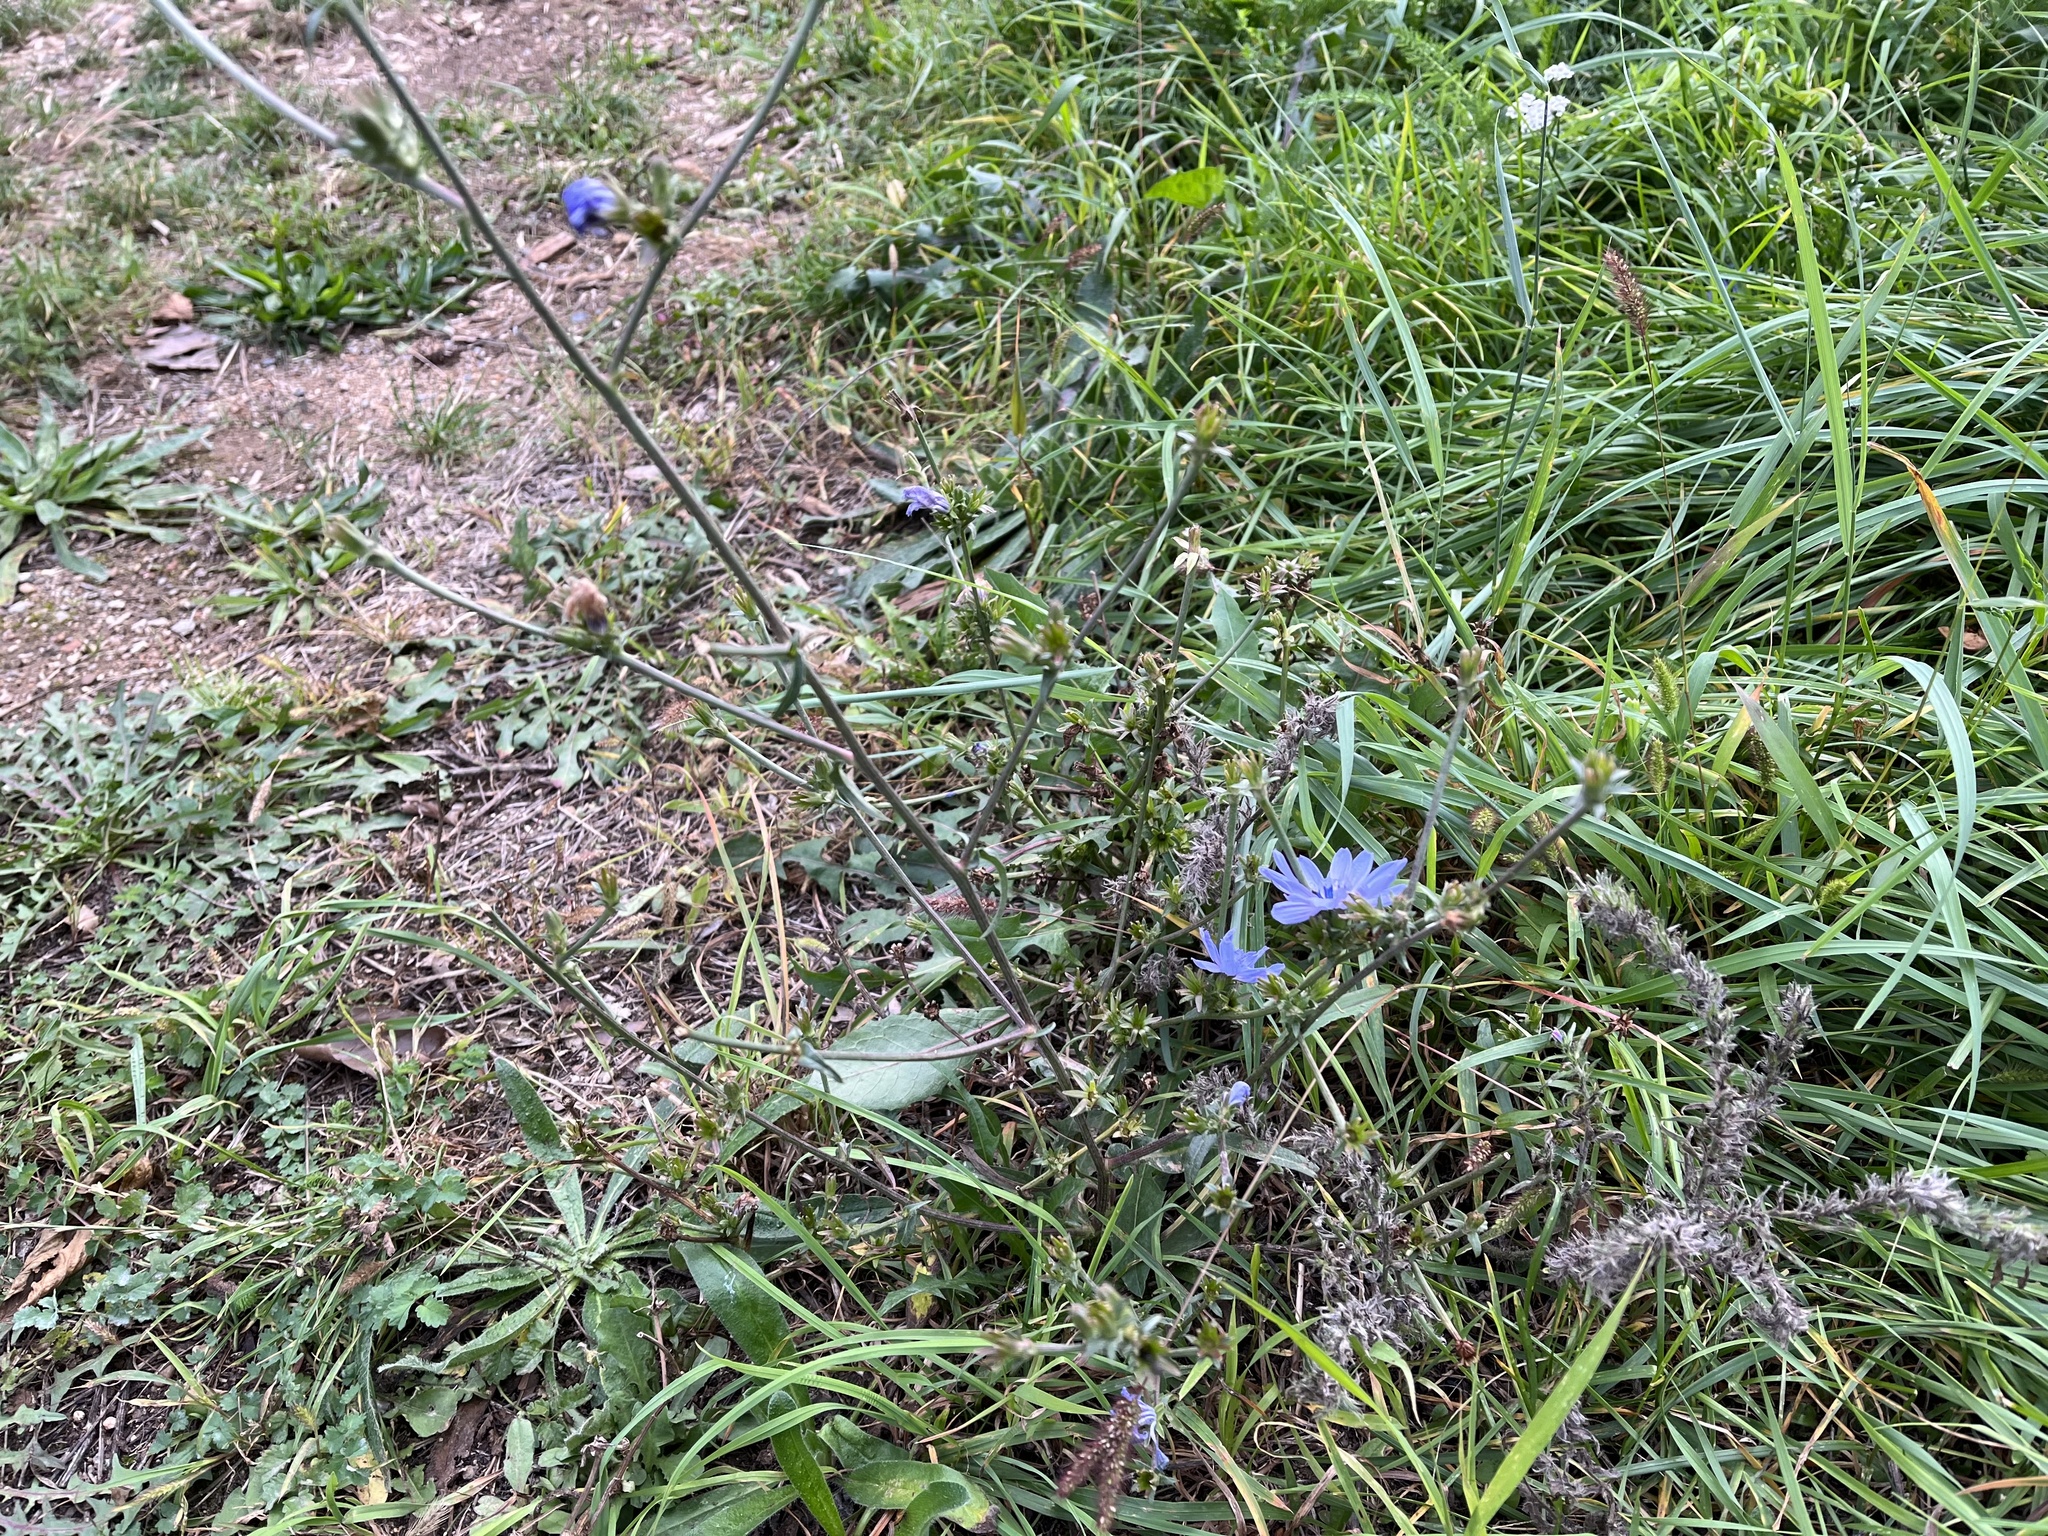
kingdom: Plantae
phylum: Tracheophyta
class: Magnoliopsida
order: Asterales
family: Asteraceae
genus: Cichorium
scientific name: Cichorium intybus
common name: Chicory
